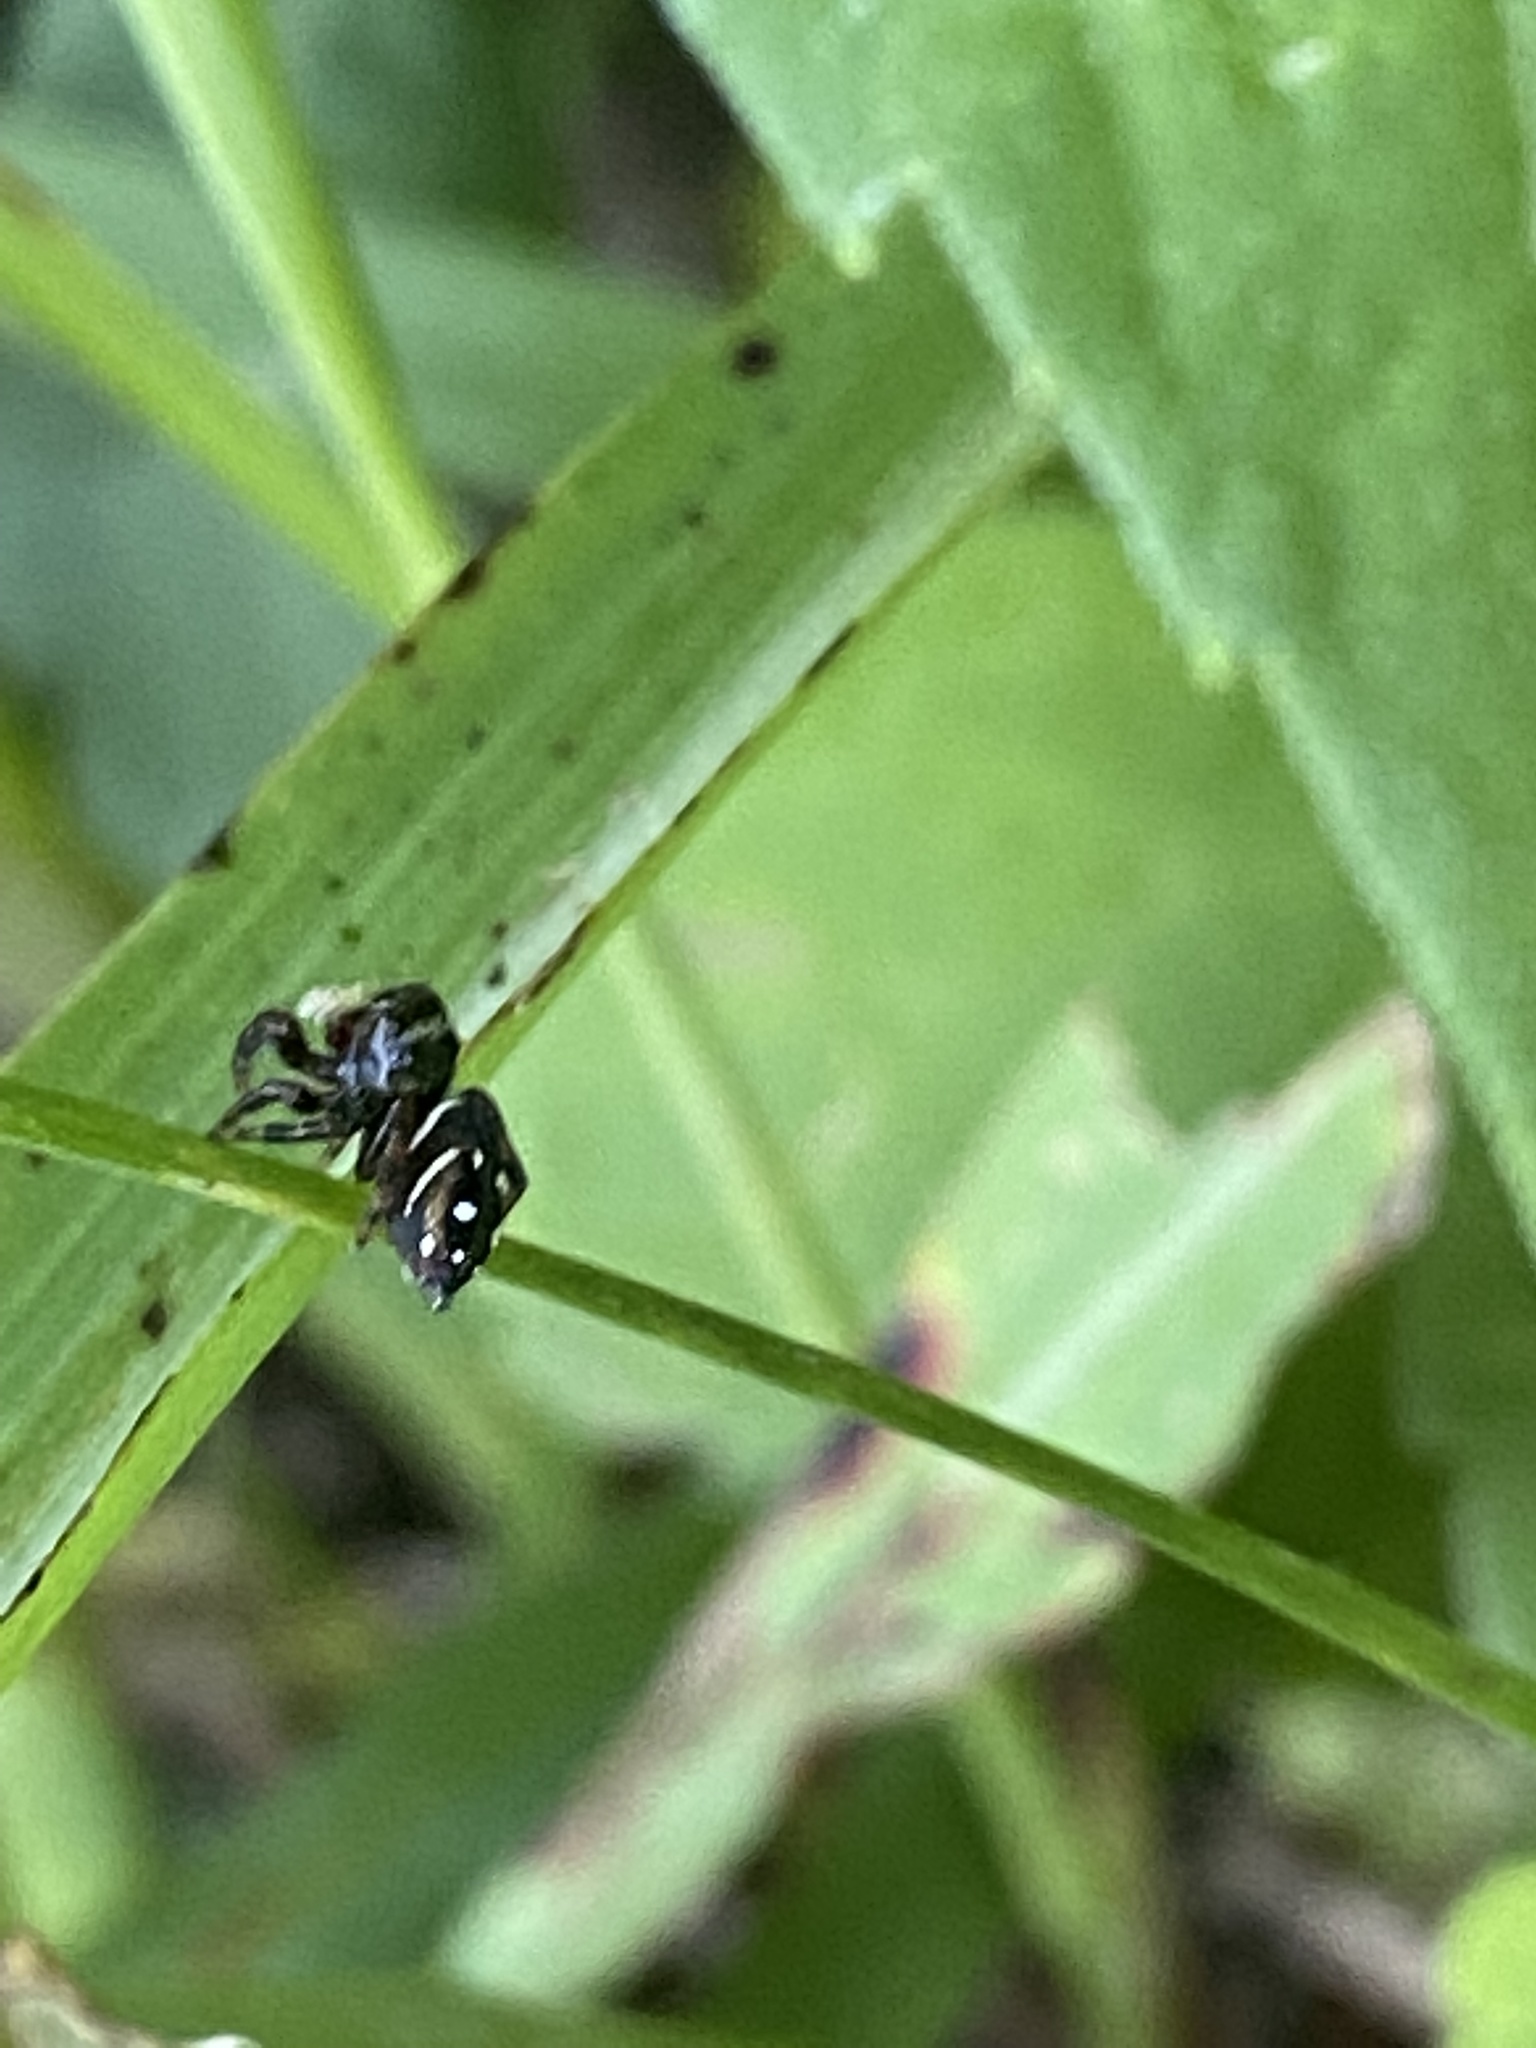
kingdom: Animalia
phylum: Arthropoda
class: Arachnida
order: Araneae
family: Salticidae
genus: Phidippus
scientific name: Phidippus clarus
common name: Brilliant jumping spider
